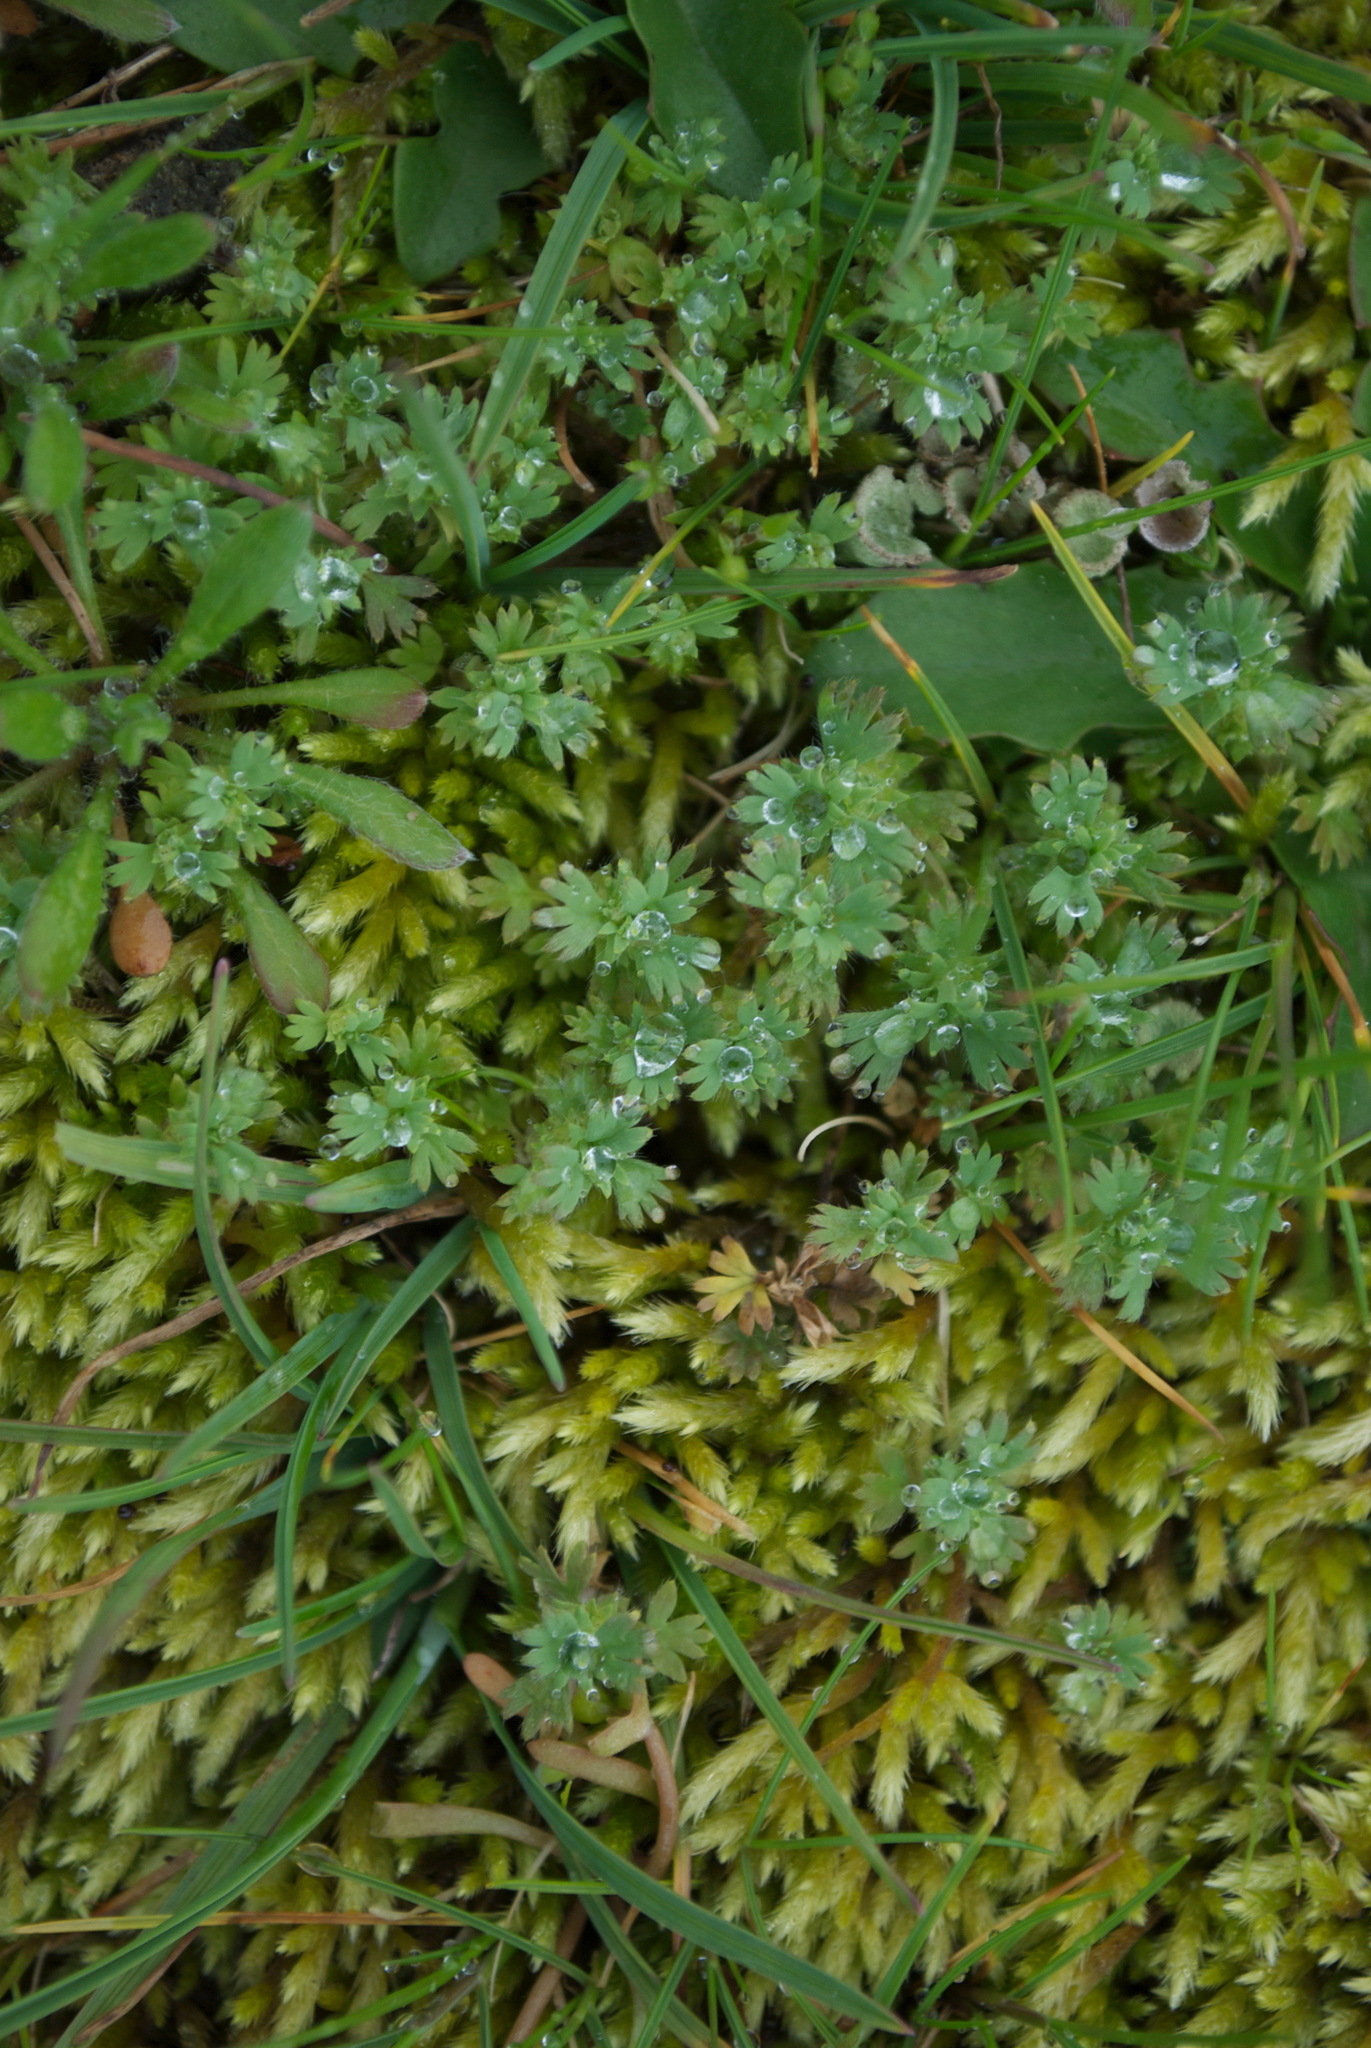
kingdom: Plantae
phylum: Tracheophyta
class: Magnoliopsida
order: Rosales
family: Rosaceae
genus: Aphanes
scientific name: Aphanes arvensis
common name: Parsley-piert
